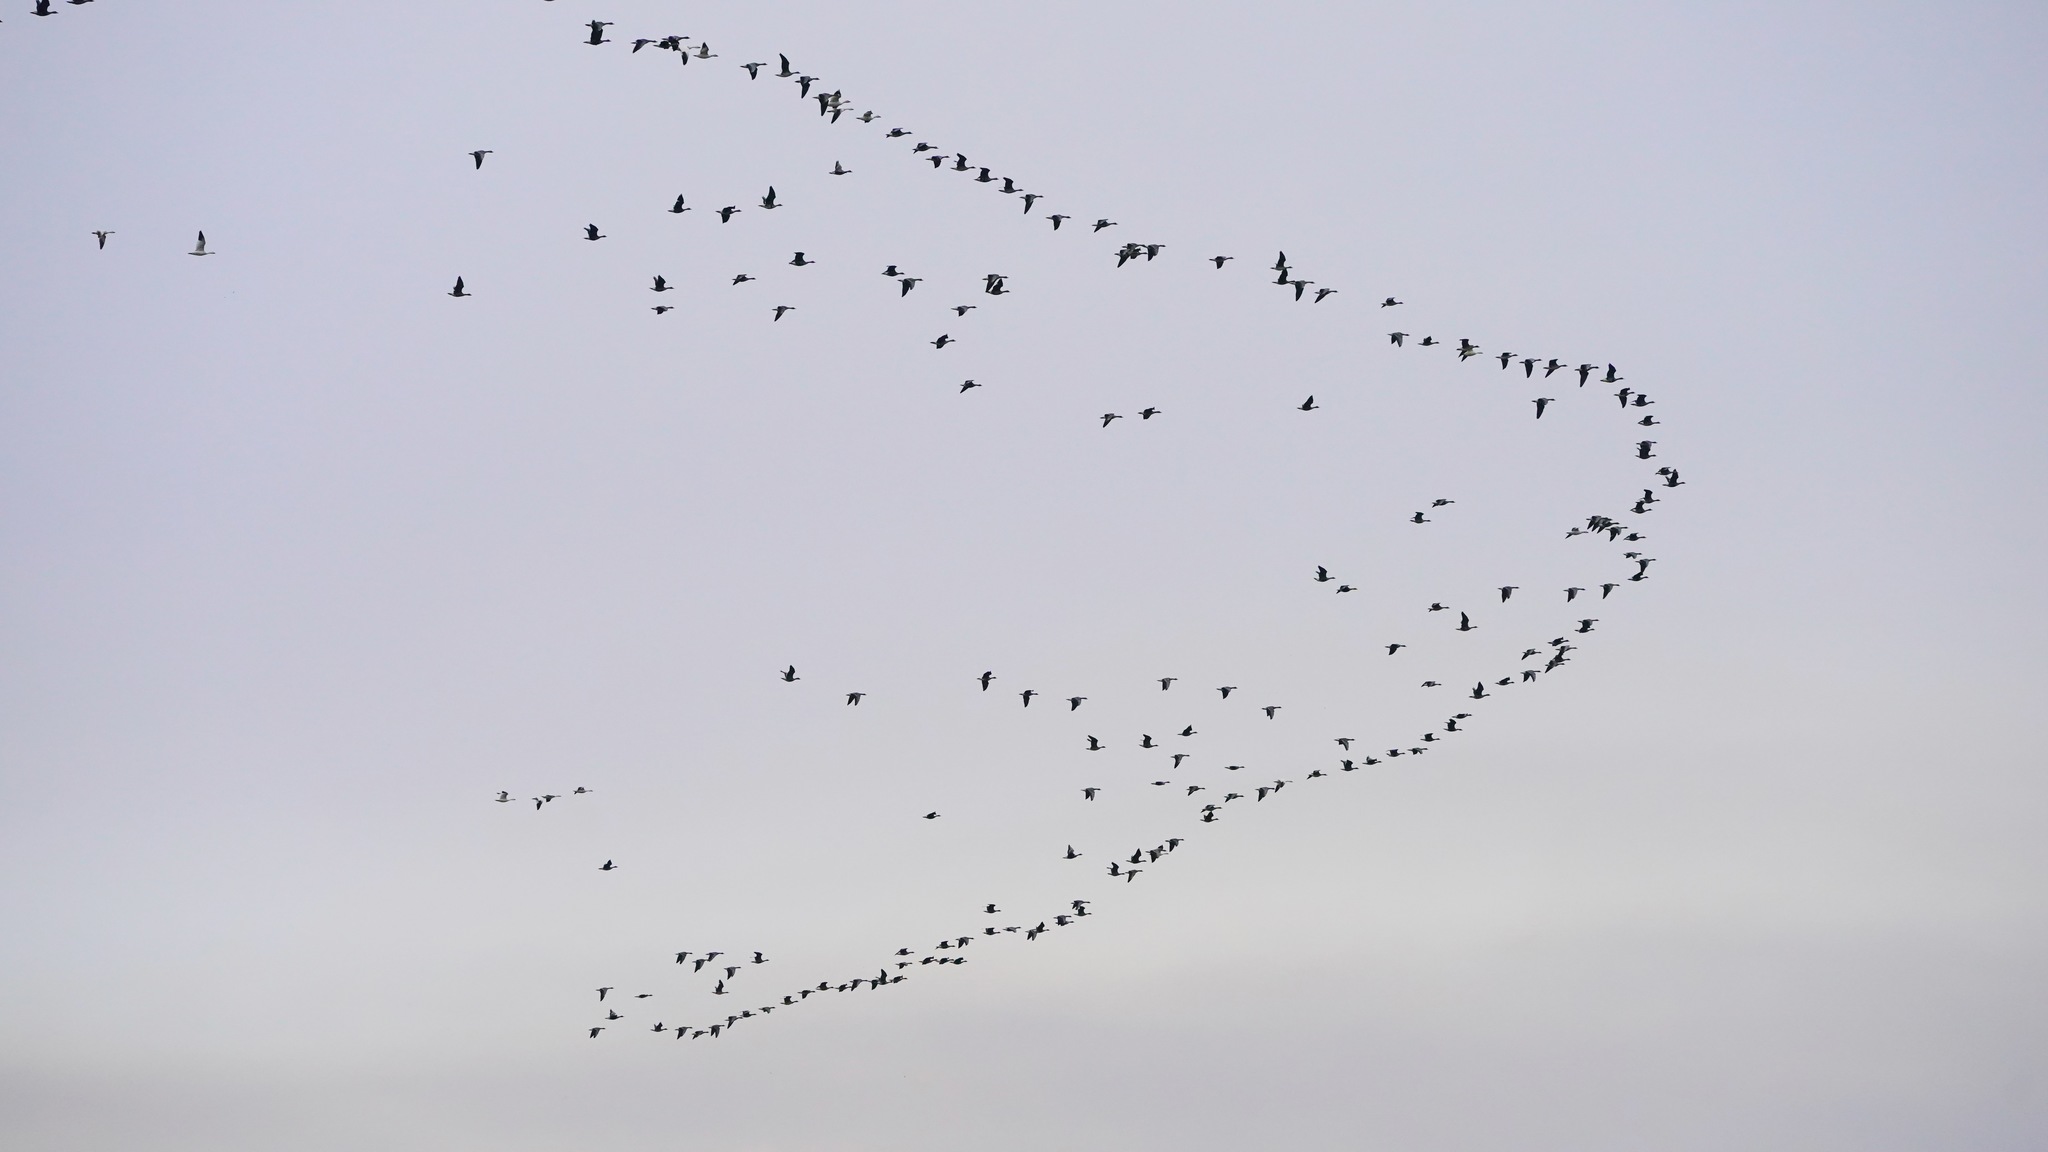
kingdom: Animalia
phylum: Chordata
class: Aves
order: Anseriformes
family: Anatidae
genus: Anser
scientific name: Anser
